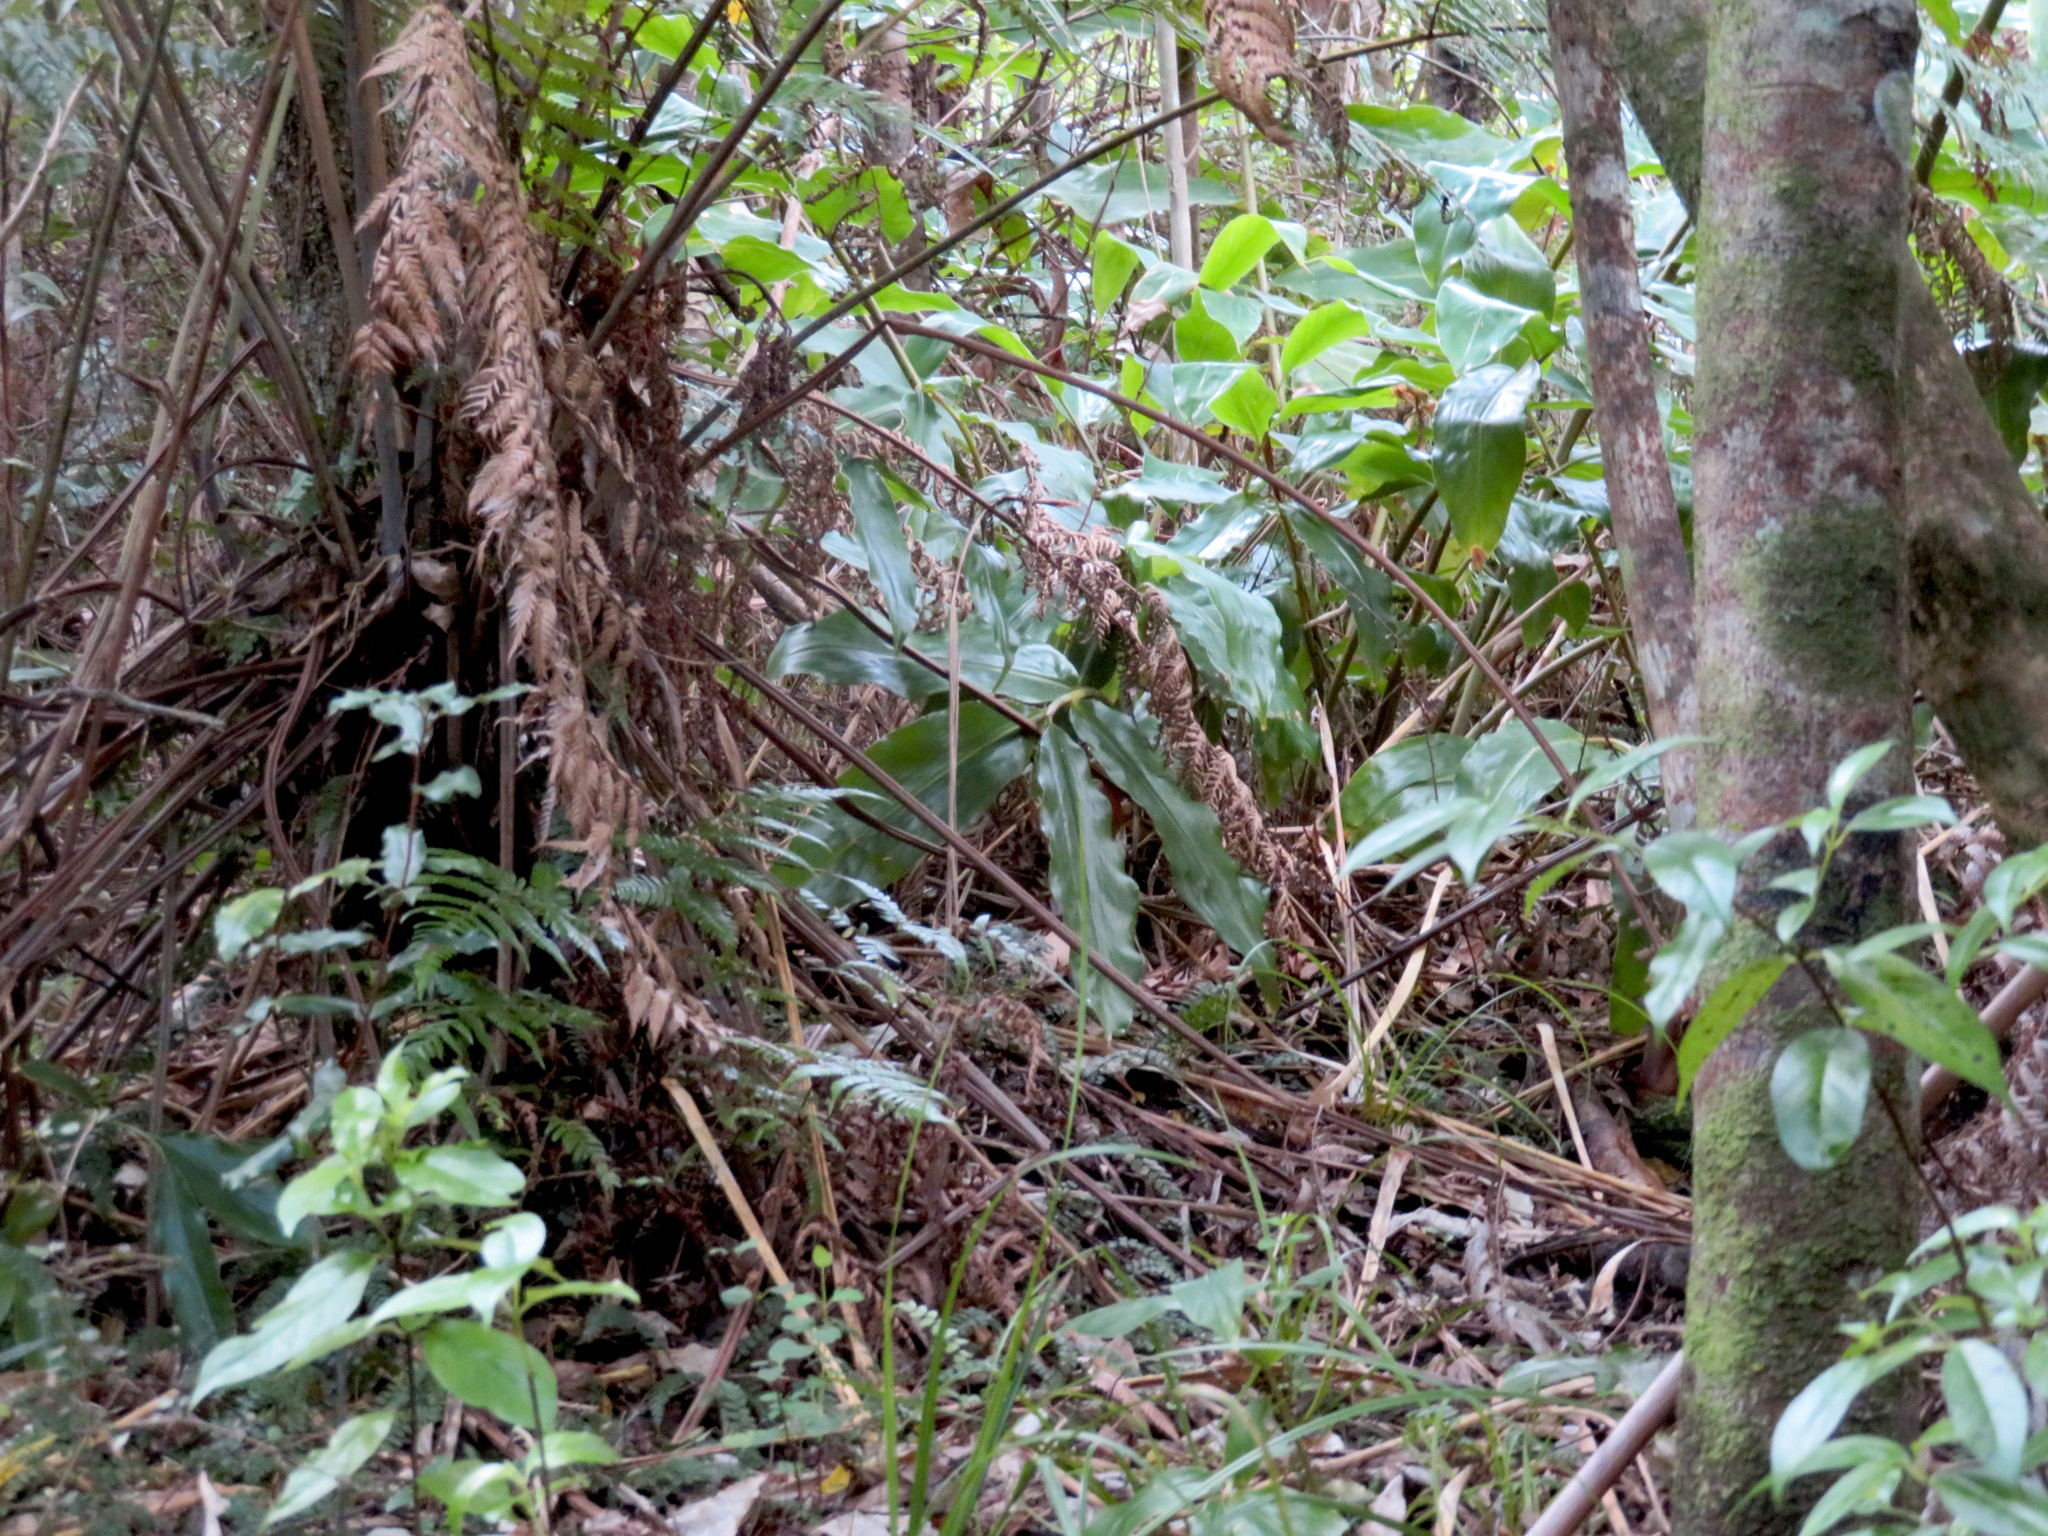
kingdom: Plantae
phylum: Tracheophyta
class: Liliopsida
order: Zingiberales
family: Zingiberaceae
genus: Hedychium
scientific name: Hedychium gardnerianum
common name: Himalayan ginger
